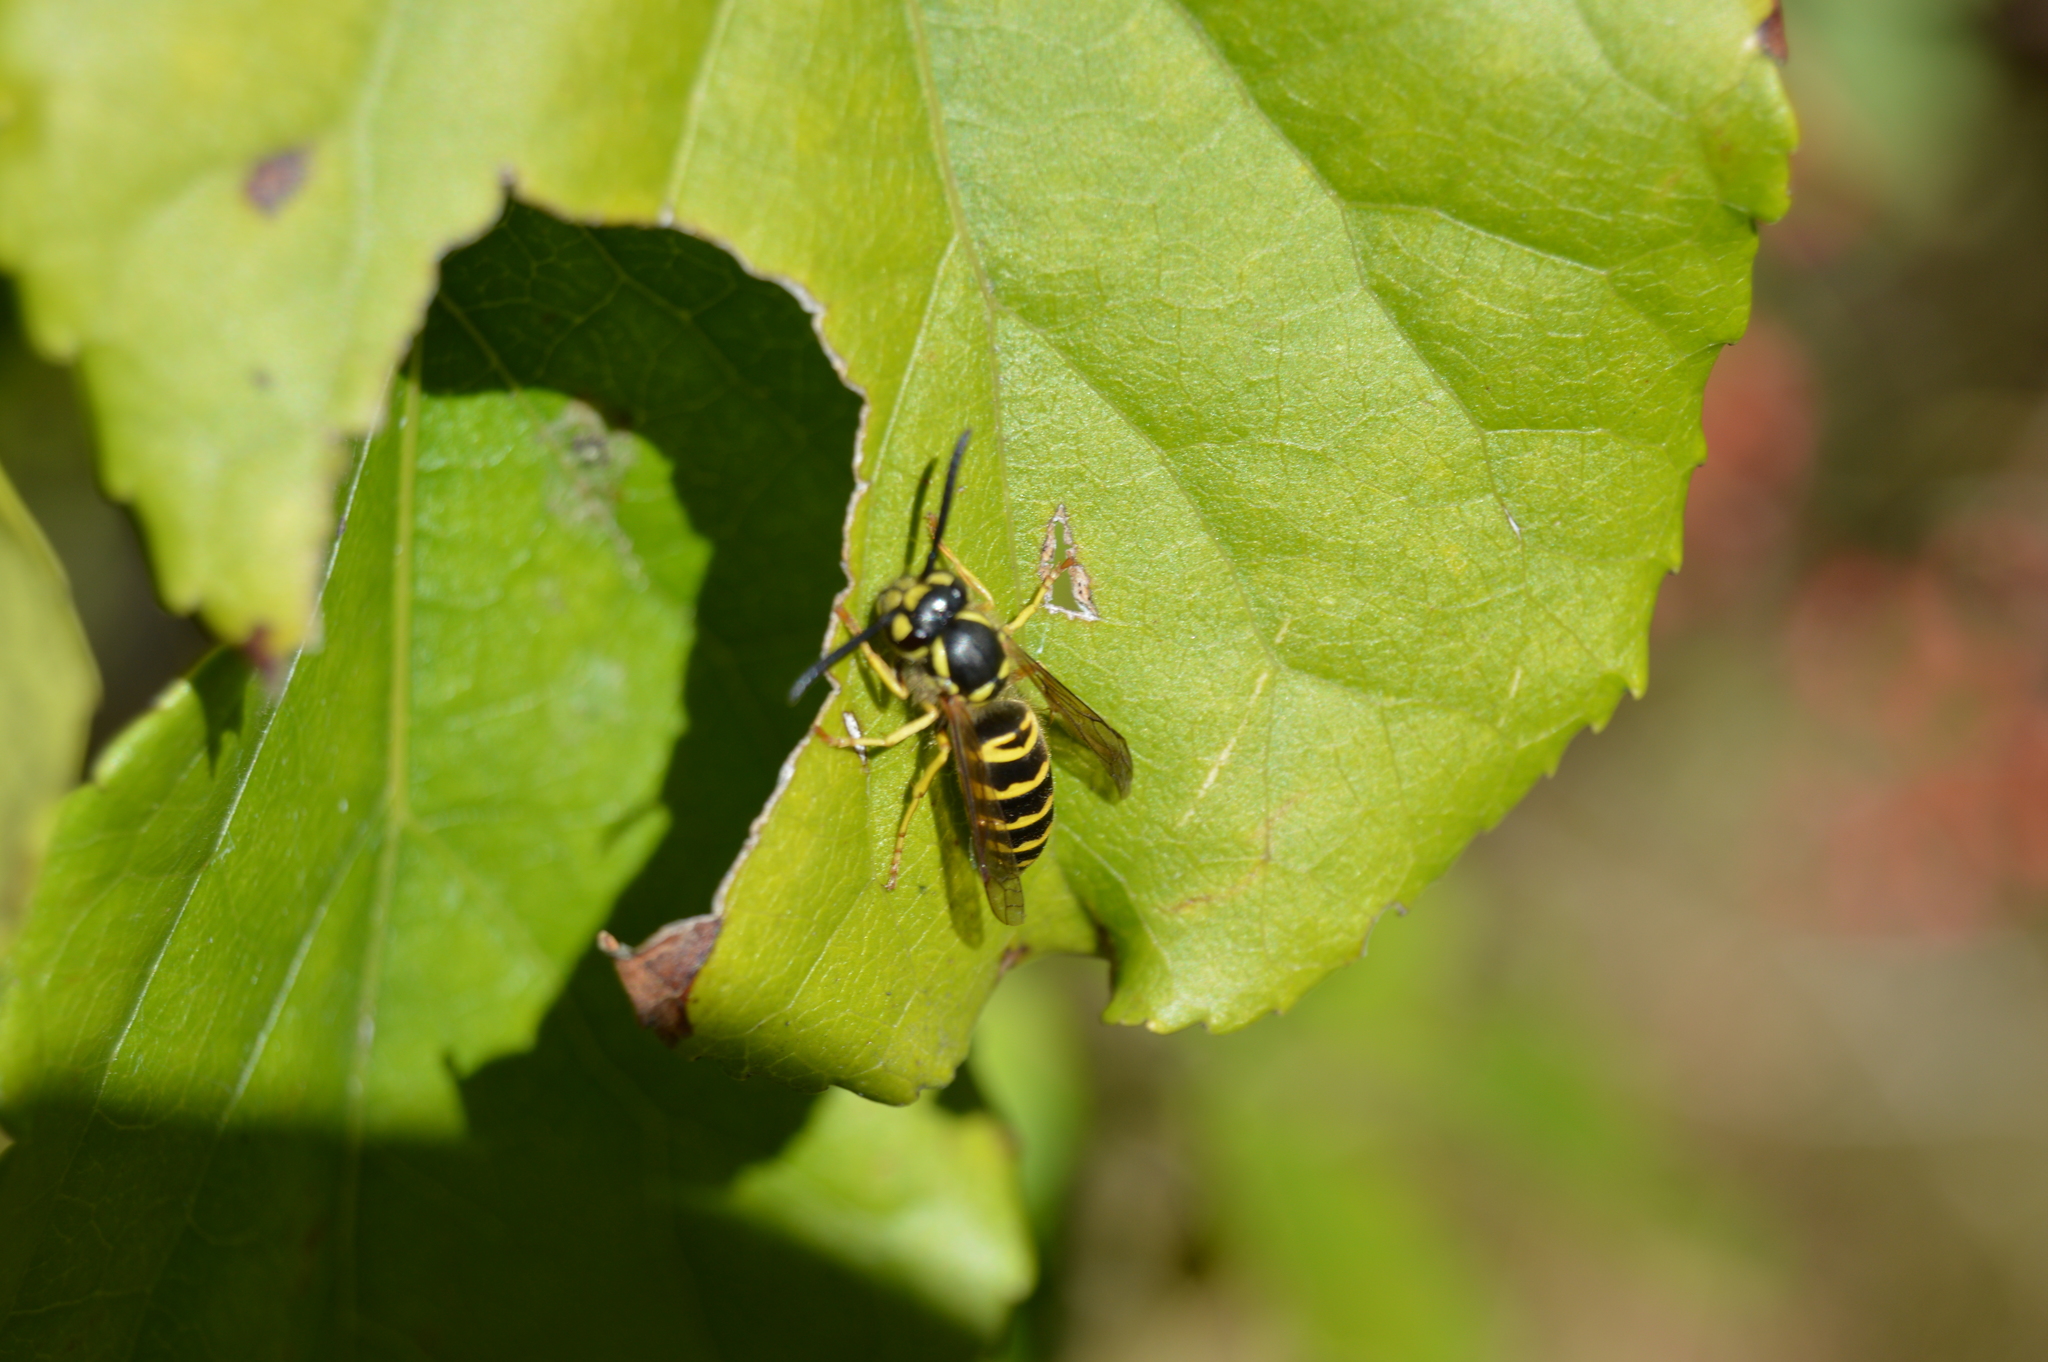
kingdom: Animalia
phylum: Arthropoda
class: Insecta
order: Hymenoptera
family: Vespidae
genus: Vespula
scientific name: Vespula maculifrons
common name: Eastern yellowjacket
